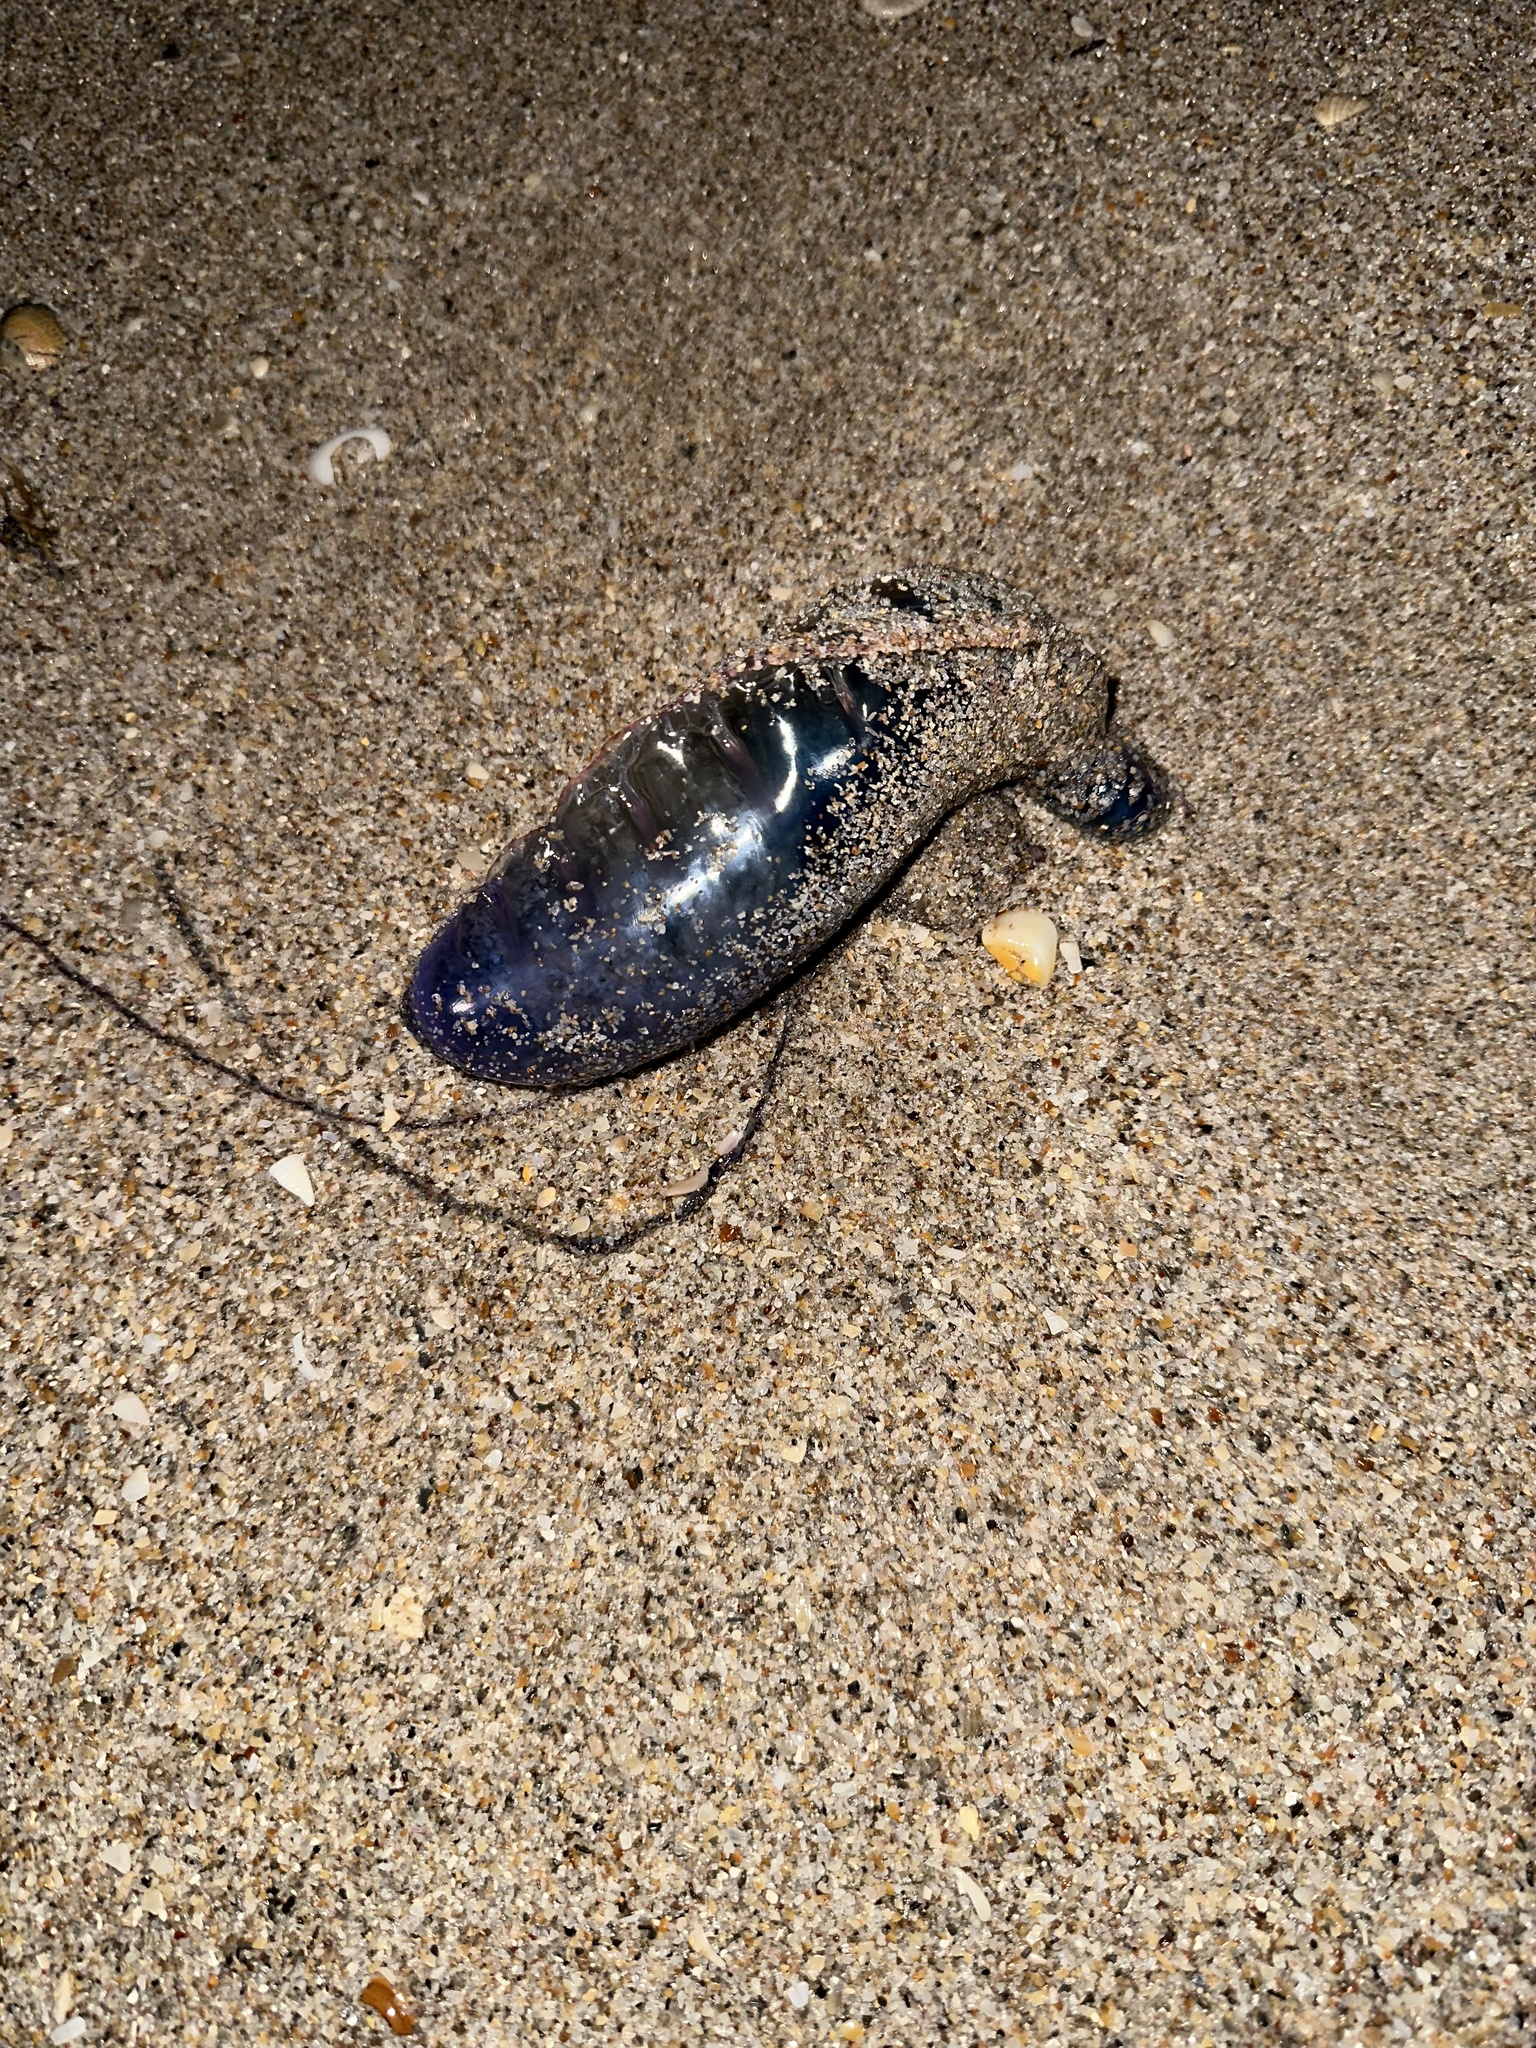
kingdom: Animalia
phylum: Cnidaria
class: Hydrozoa
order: Siphonophorae
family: Physaliidae
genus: Physalia
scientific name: Physalia physalis
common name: Portuguese man-of-war
